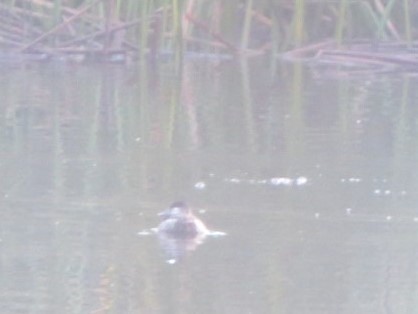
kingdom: Animalia
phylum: Chordata
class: Aves
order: Anseriformes
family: Anatidae
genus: Oxyura
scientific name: Oxyura jamaicensis
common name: Ruddy duck
